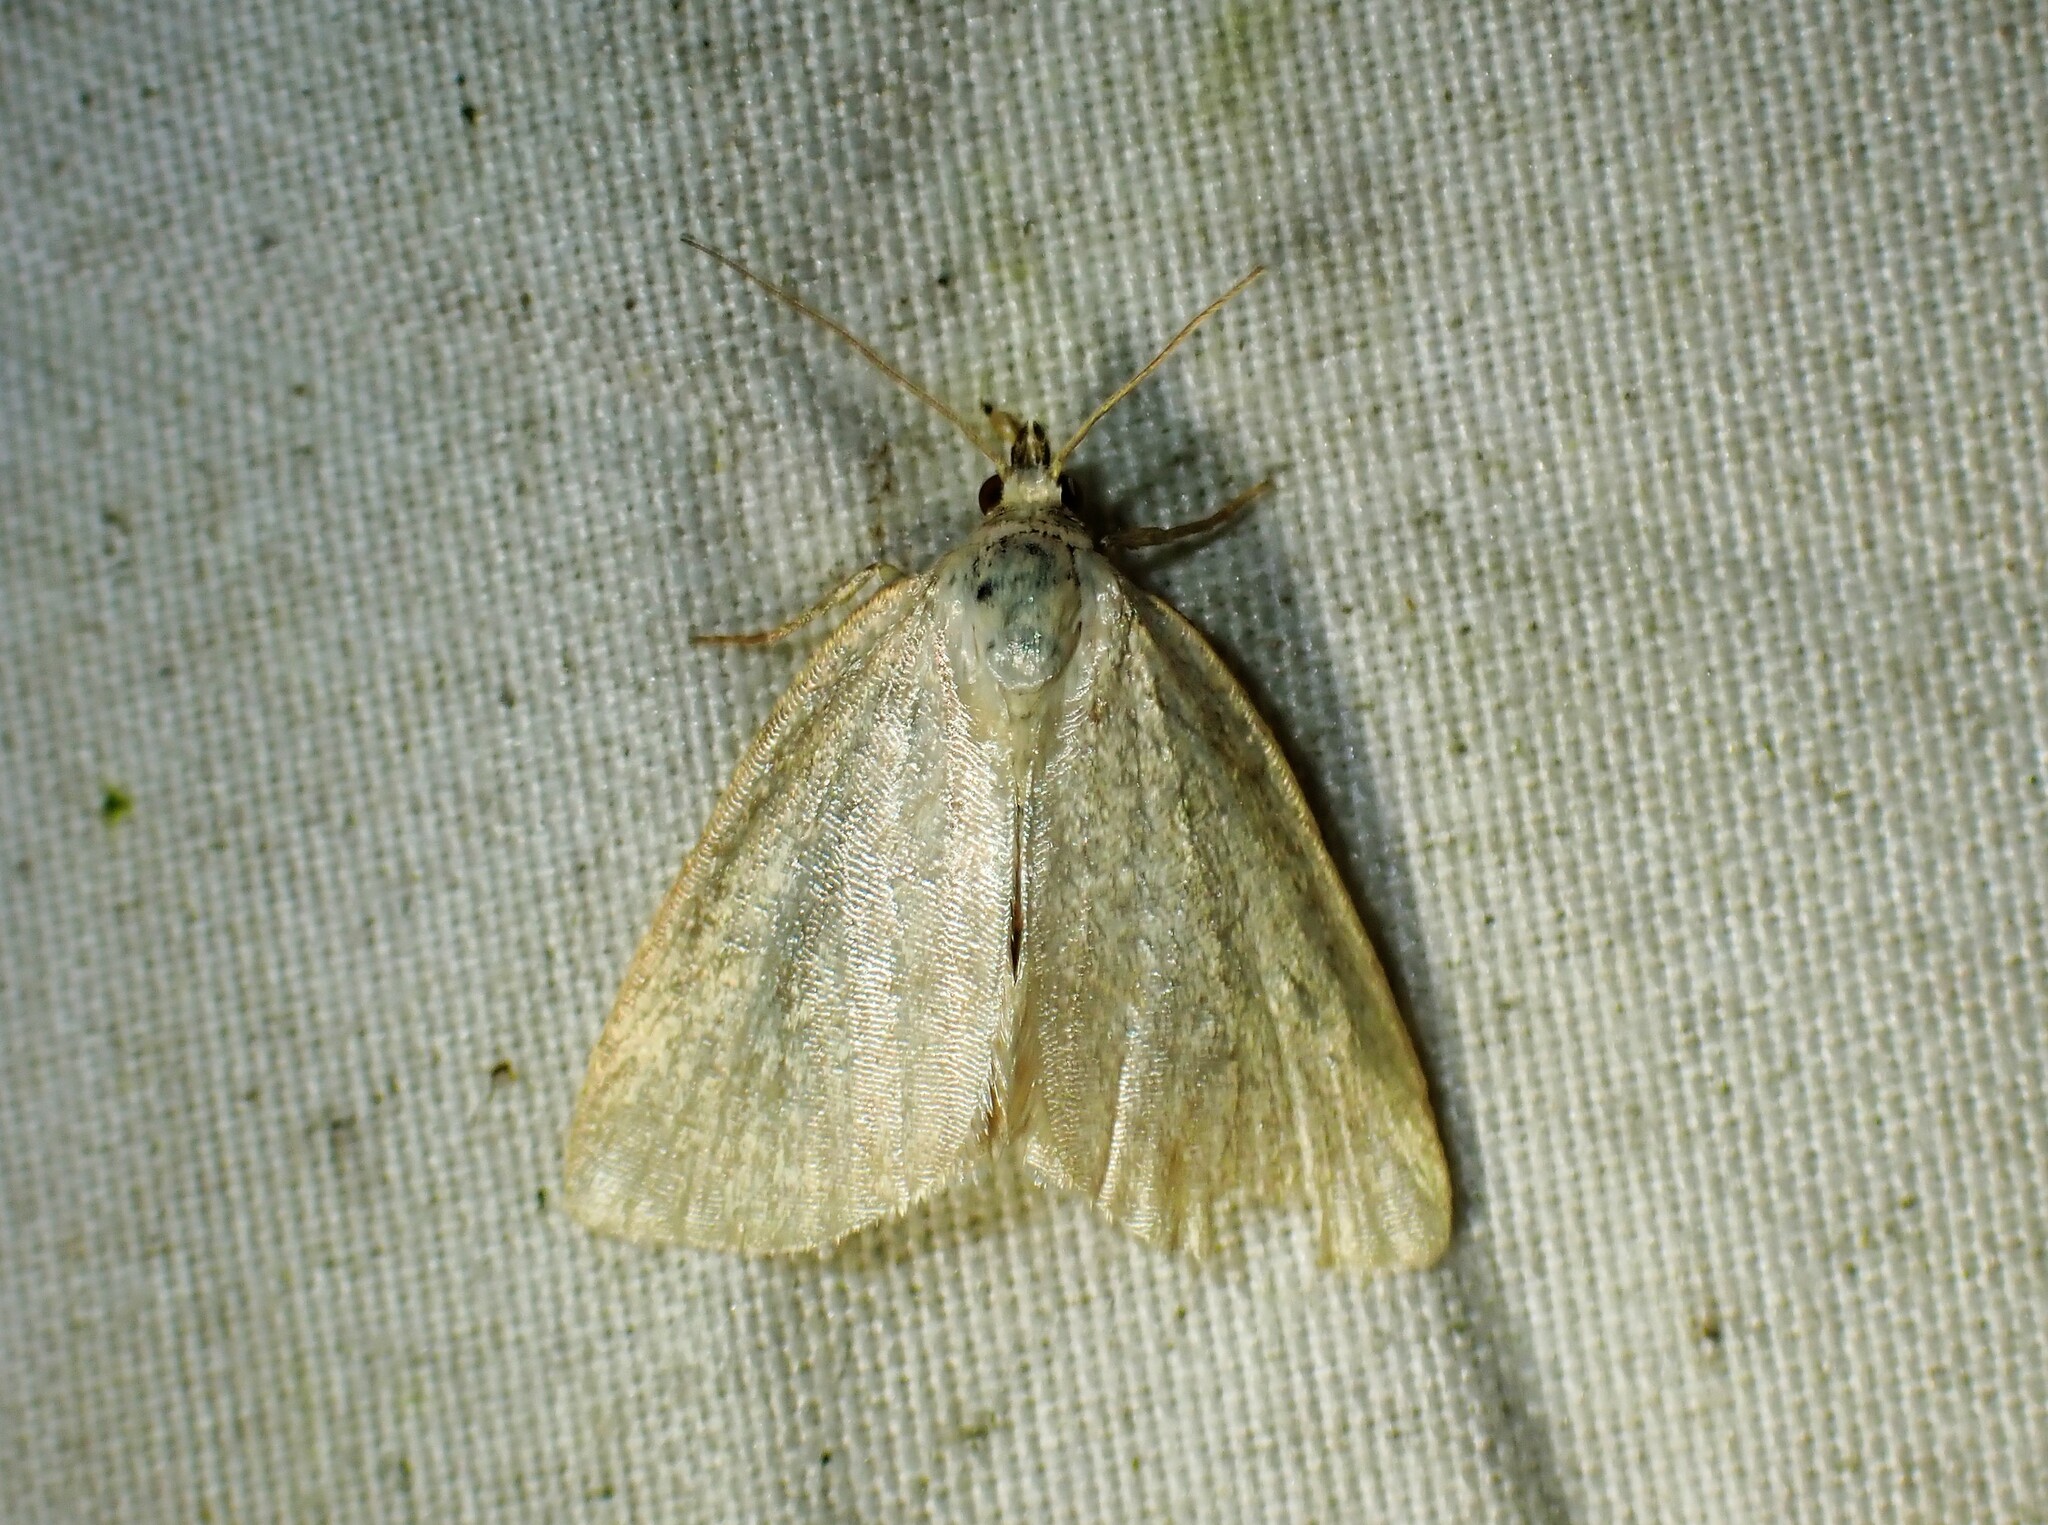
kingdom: Animalia
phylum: Arthropoda
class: Insecta
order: Lepidoptera
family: Noctuidae
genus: Protodeltote
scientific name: Protodeltote albidula
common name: Pale glyph
